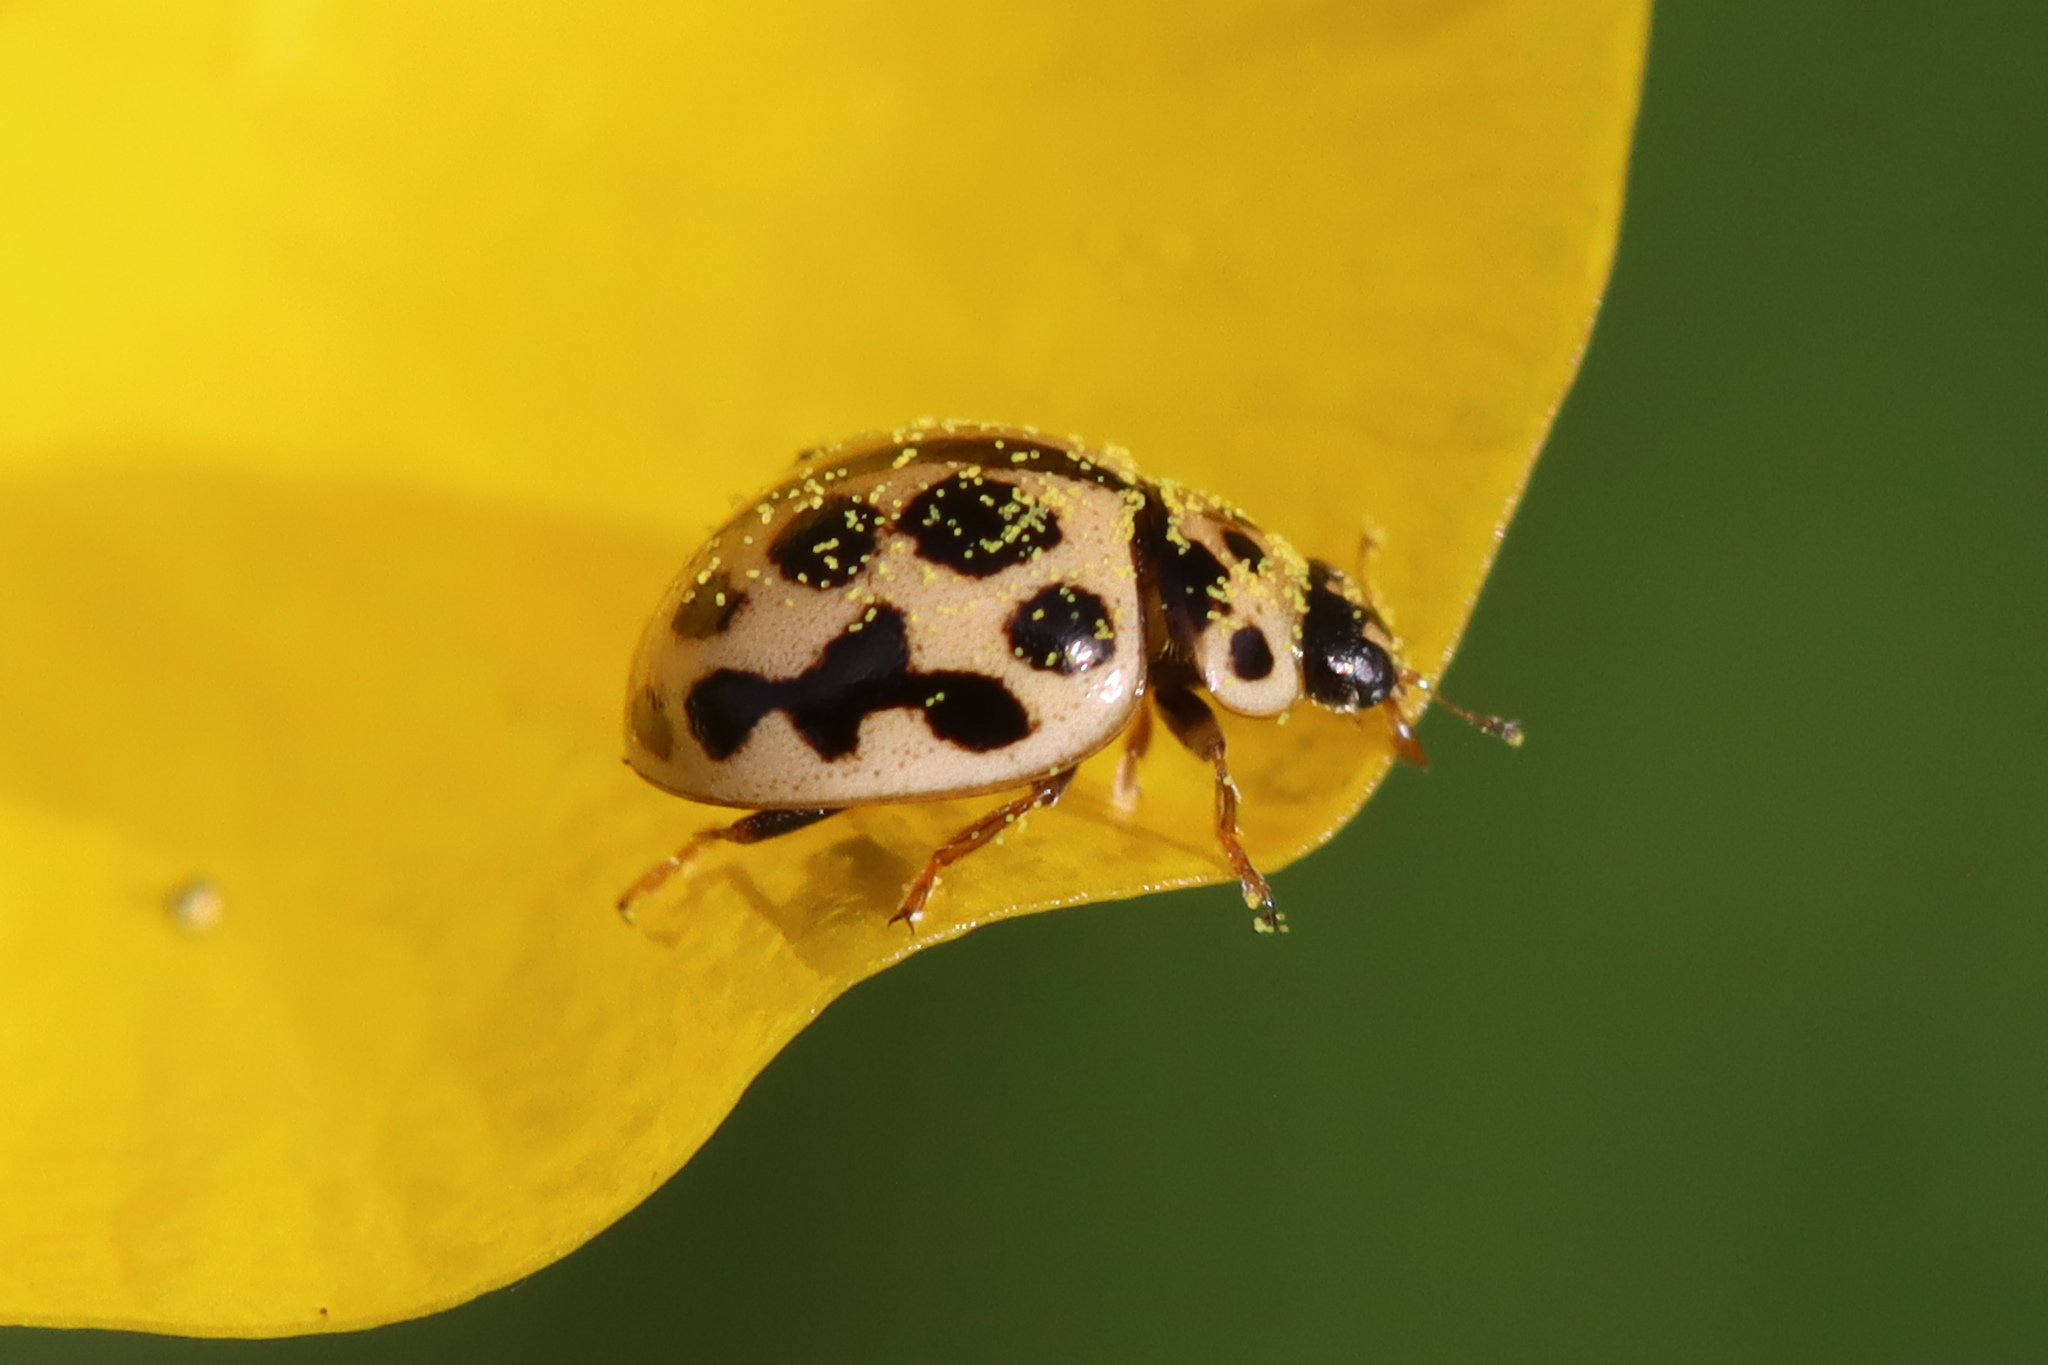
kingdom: Animalia
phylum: Arthropoda
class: Insecta
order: Coleoptera
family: Coccinellidae
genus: Tytthaspis
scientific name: Tytthaspis sedecimpunctata
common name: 16-spot ladybird
